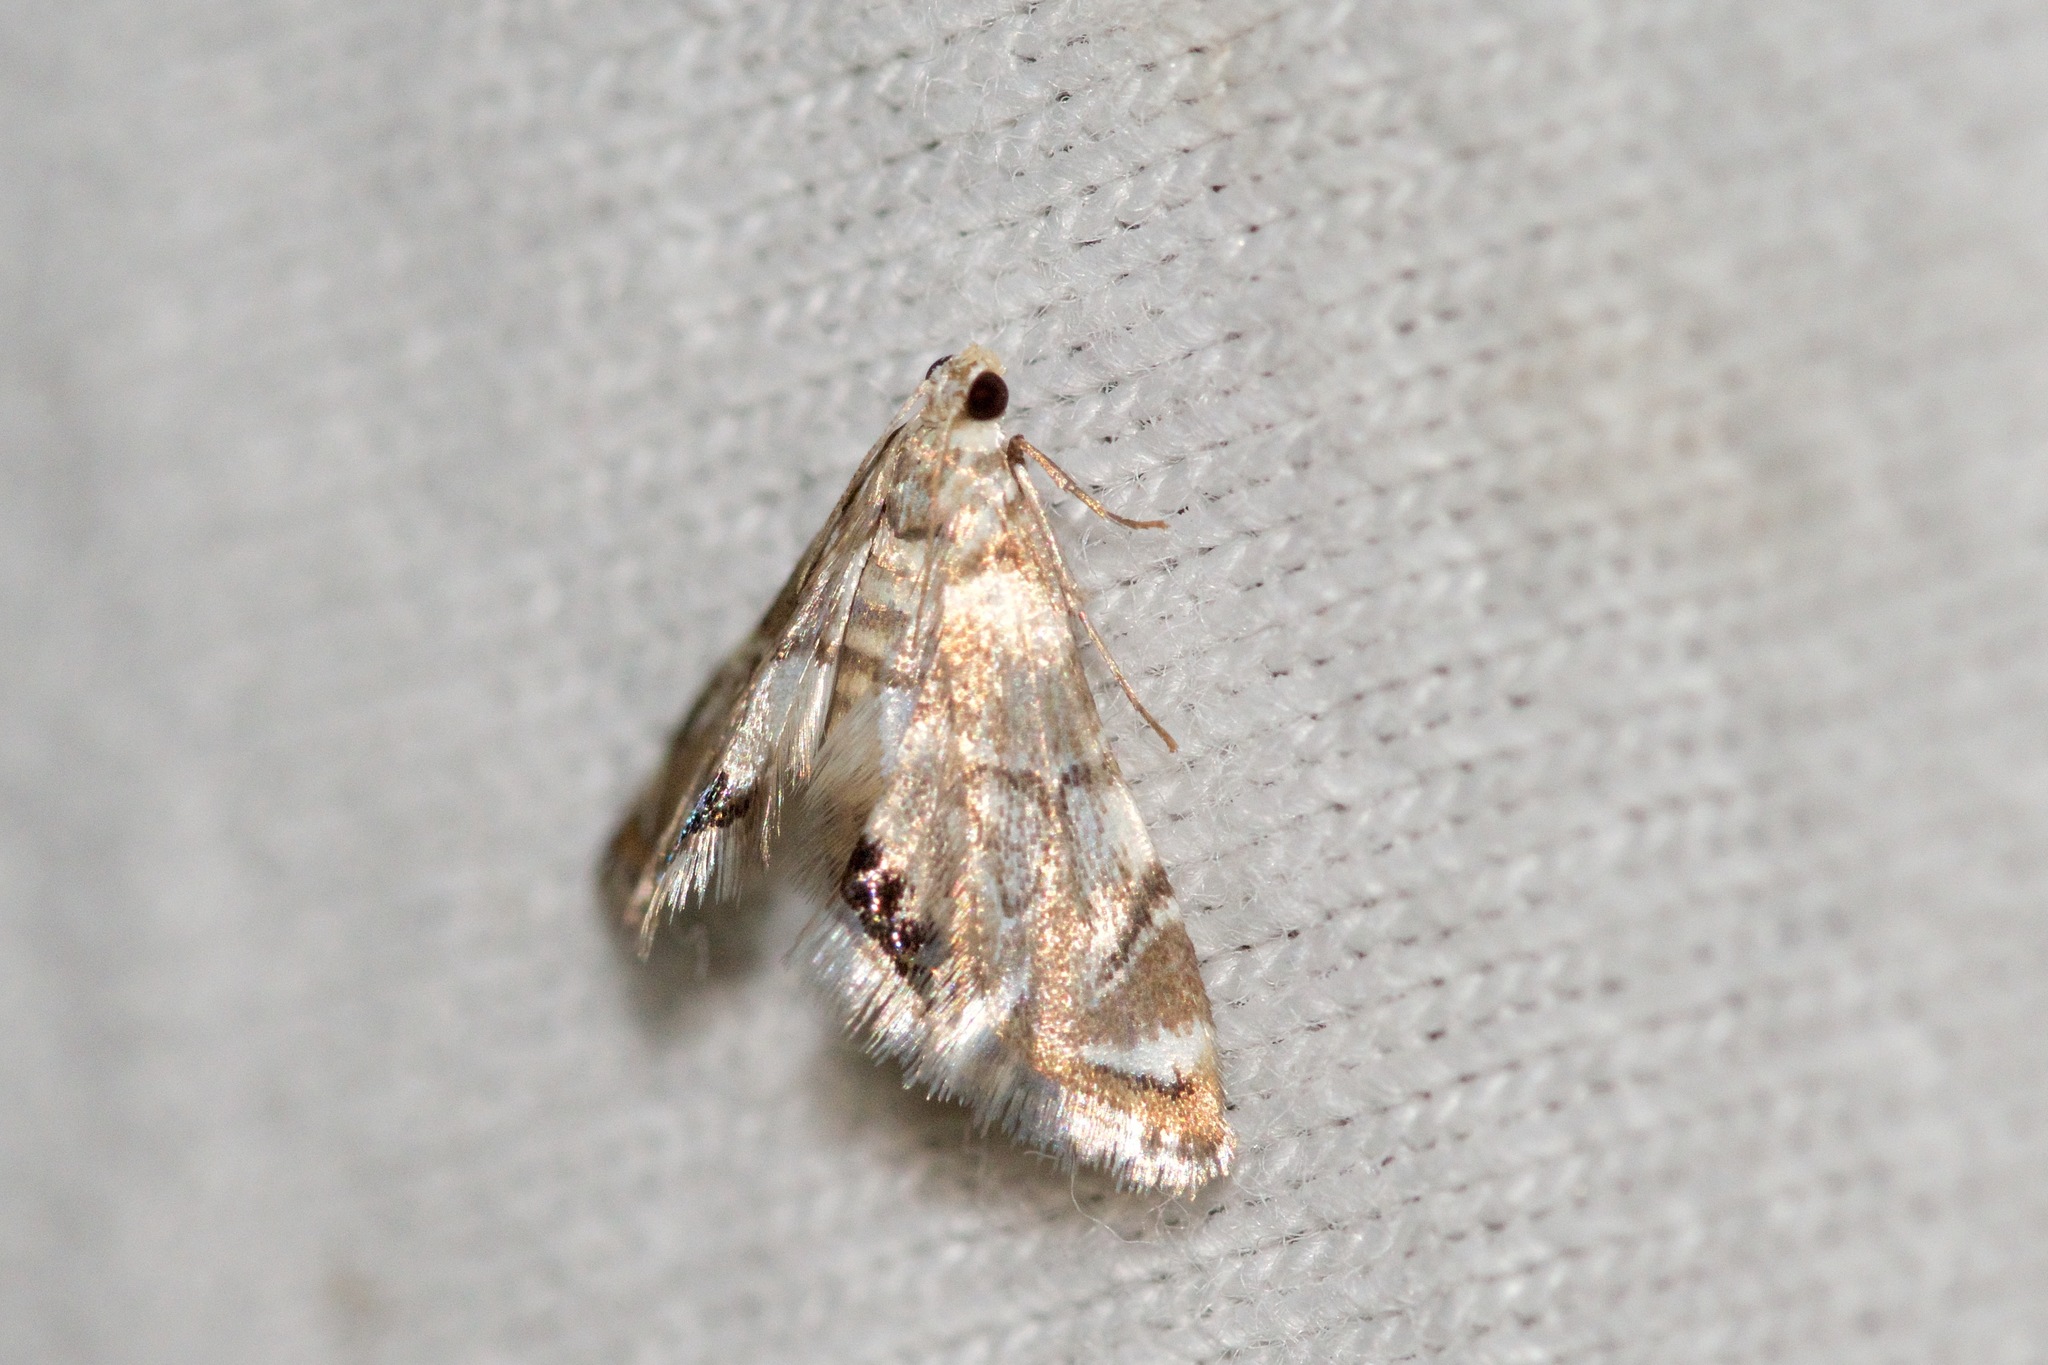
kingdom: Animalia
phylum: Arthropoda
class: Insecta
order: Lepidoptera
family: Crambidae
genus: Petrophila
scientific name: Petrophila canadensis
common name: Canadian petrophila
